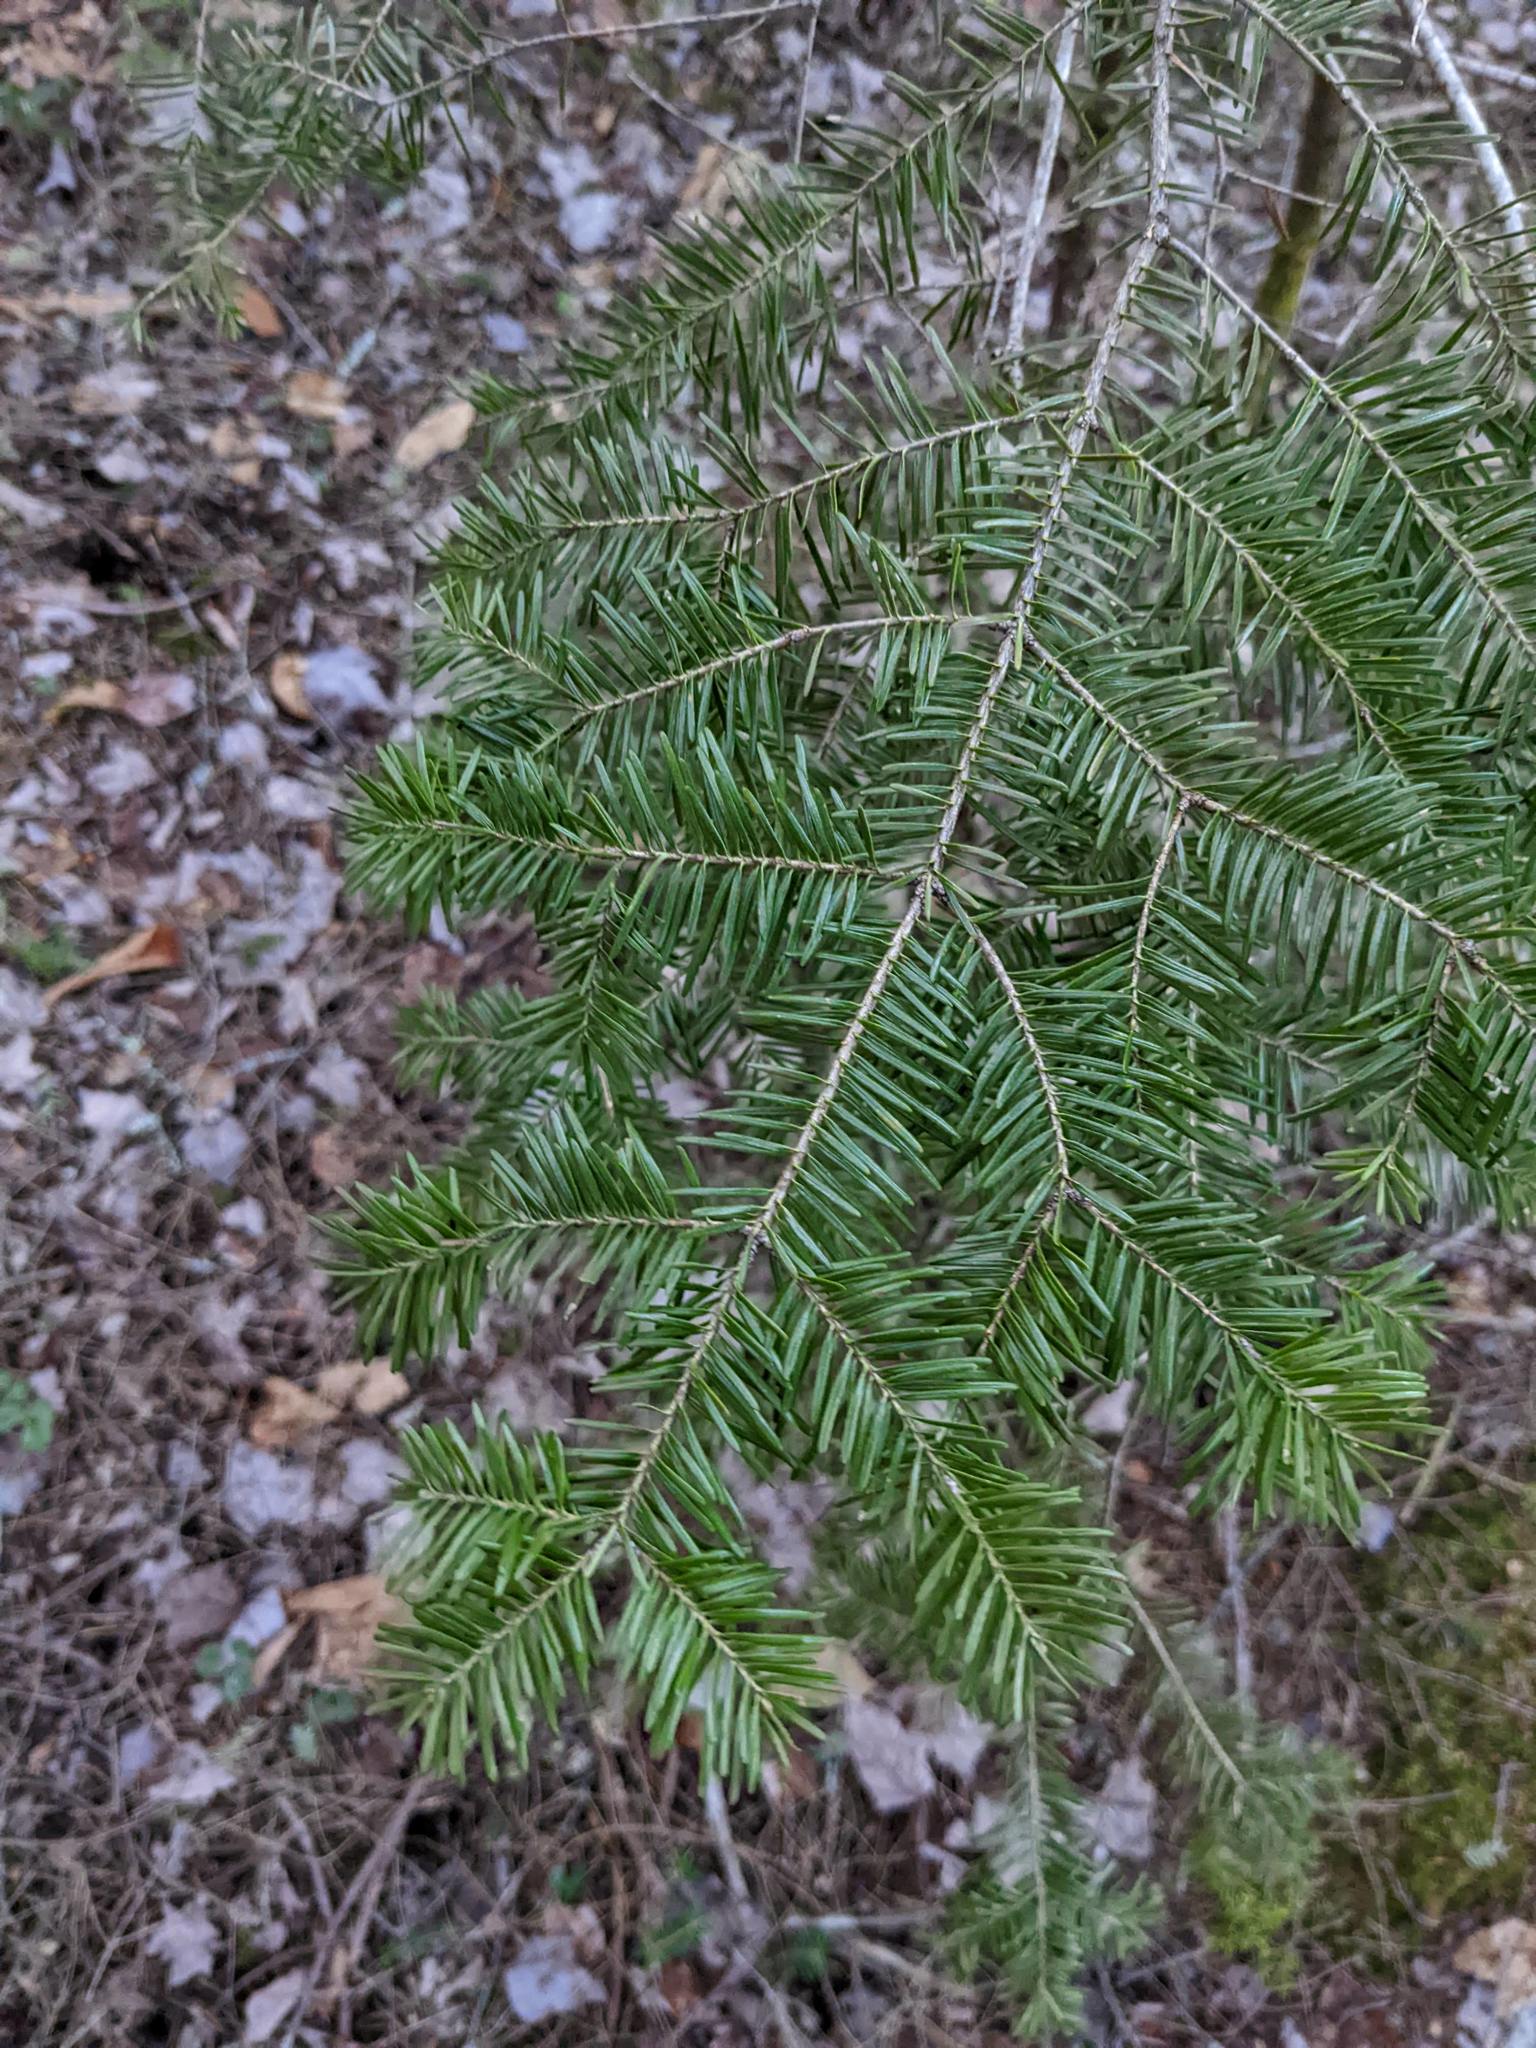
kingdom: Plantae
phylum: Tracheophyta
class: Pinopsida
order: Pinales
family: Pinaceae
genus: Abies
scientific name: Abies balsamea
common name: Balsam fir
